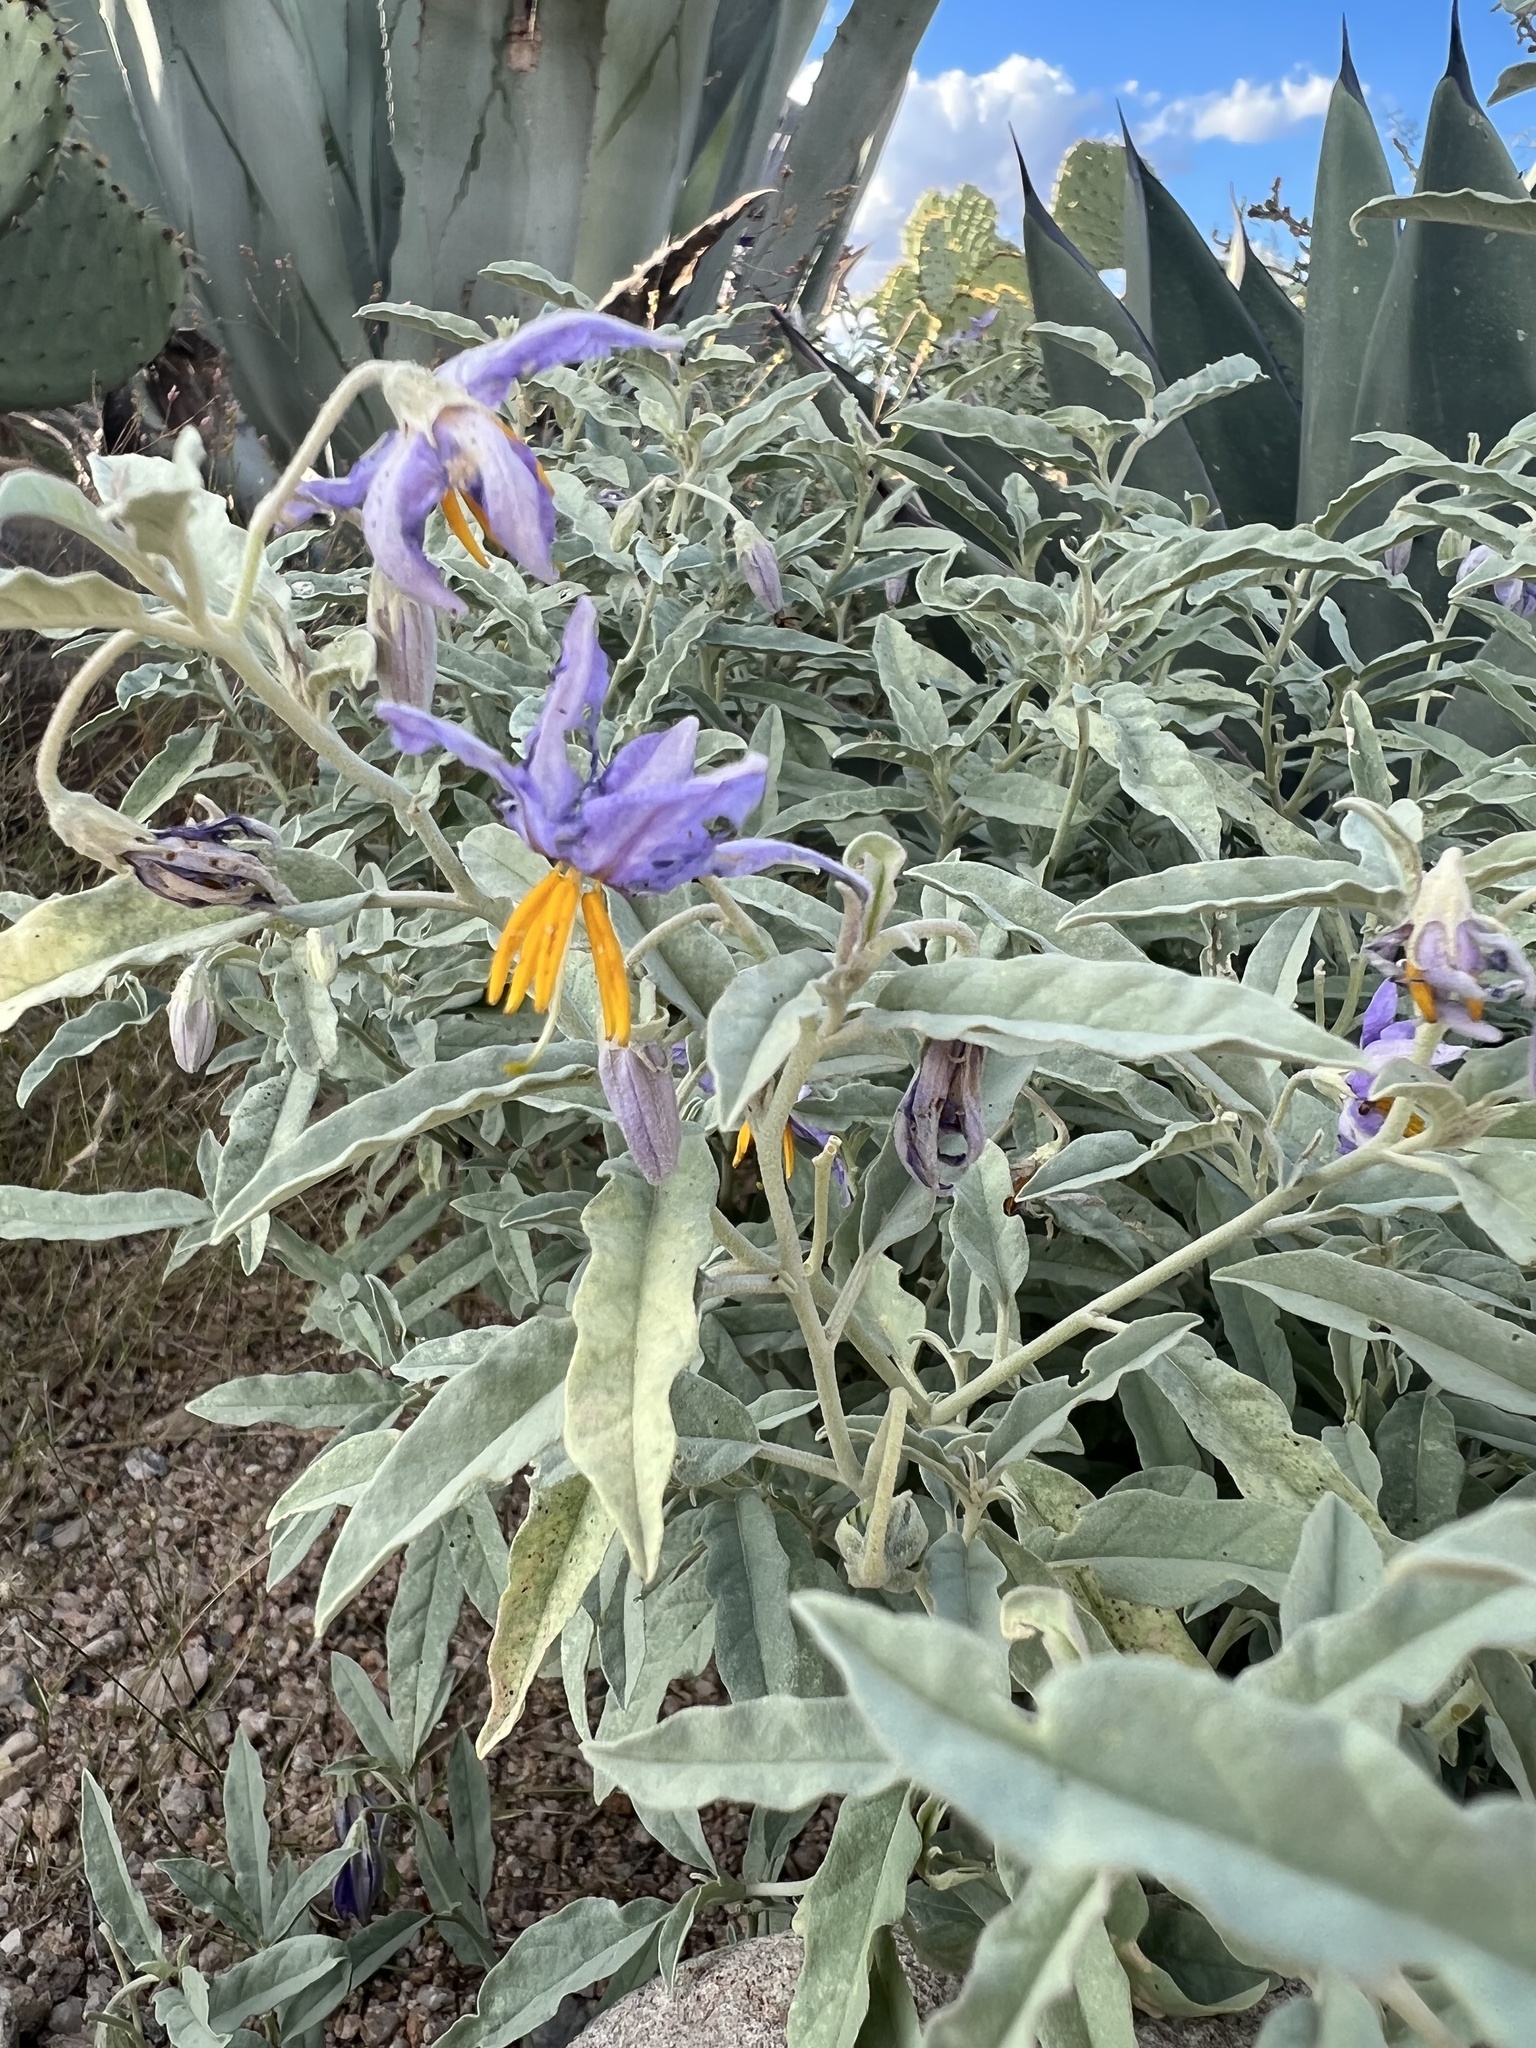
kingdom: Plantae
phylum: Tracheophyta
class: Magnoliopsida
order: Solanales
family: Solanaceae
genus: Solanum
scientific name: Solanum elaeagnifolium
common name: Silverleaf nightshade
